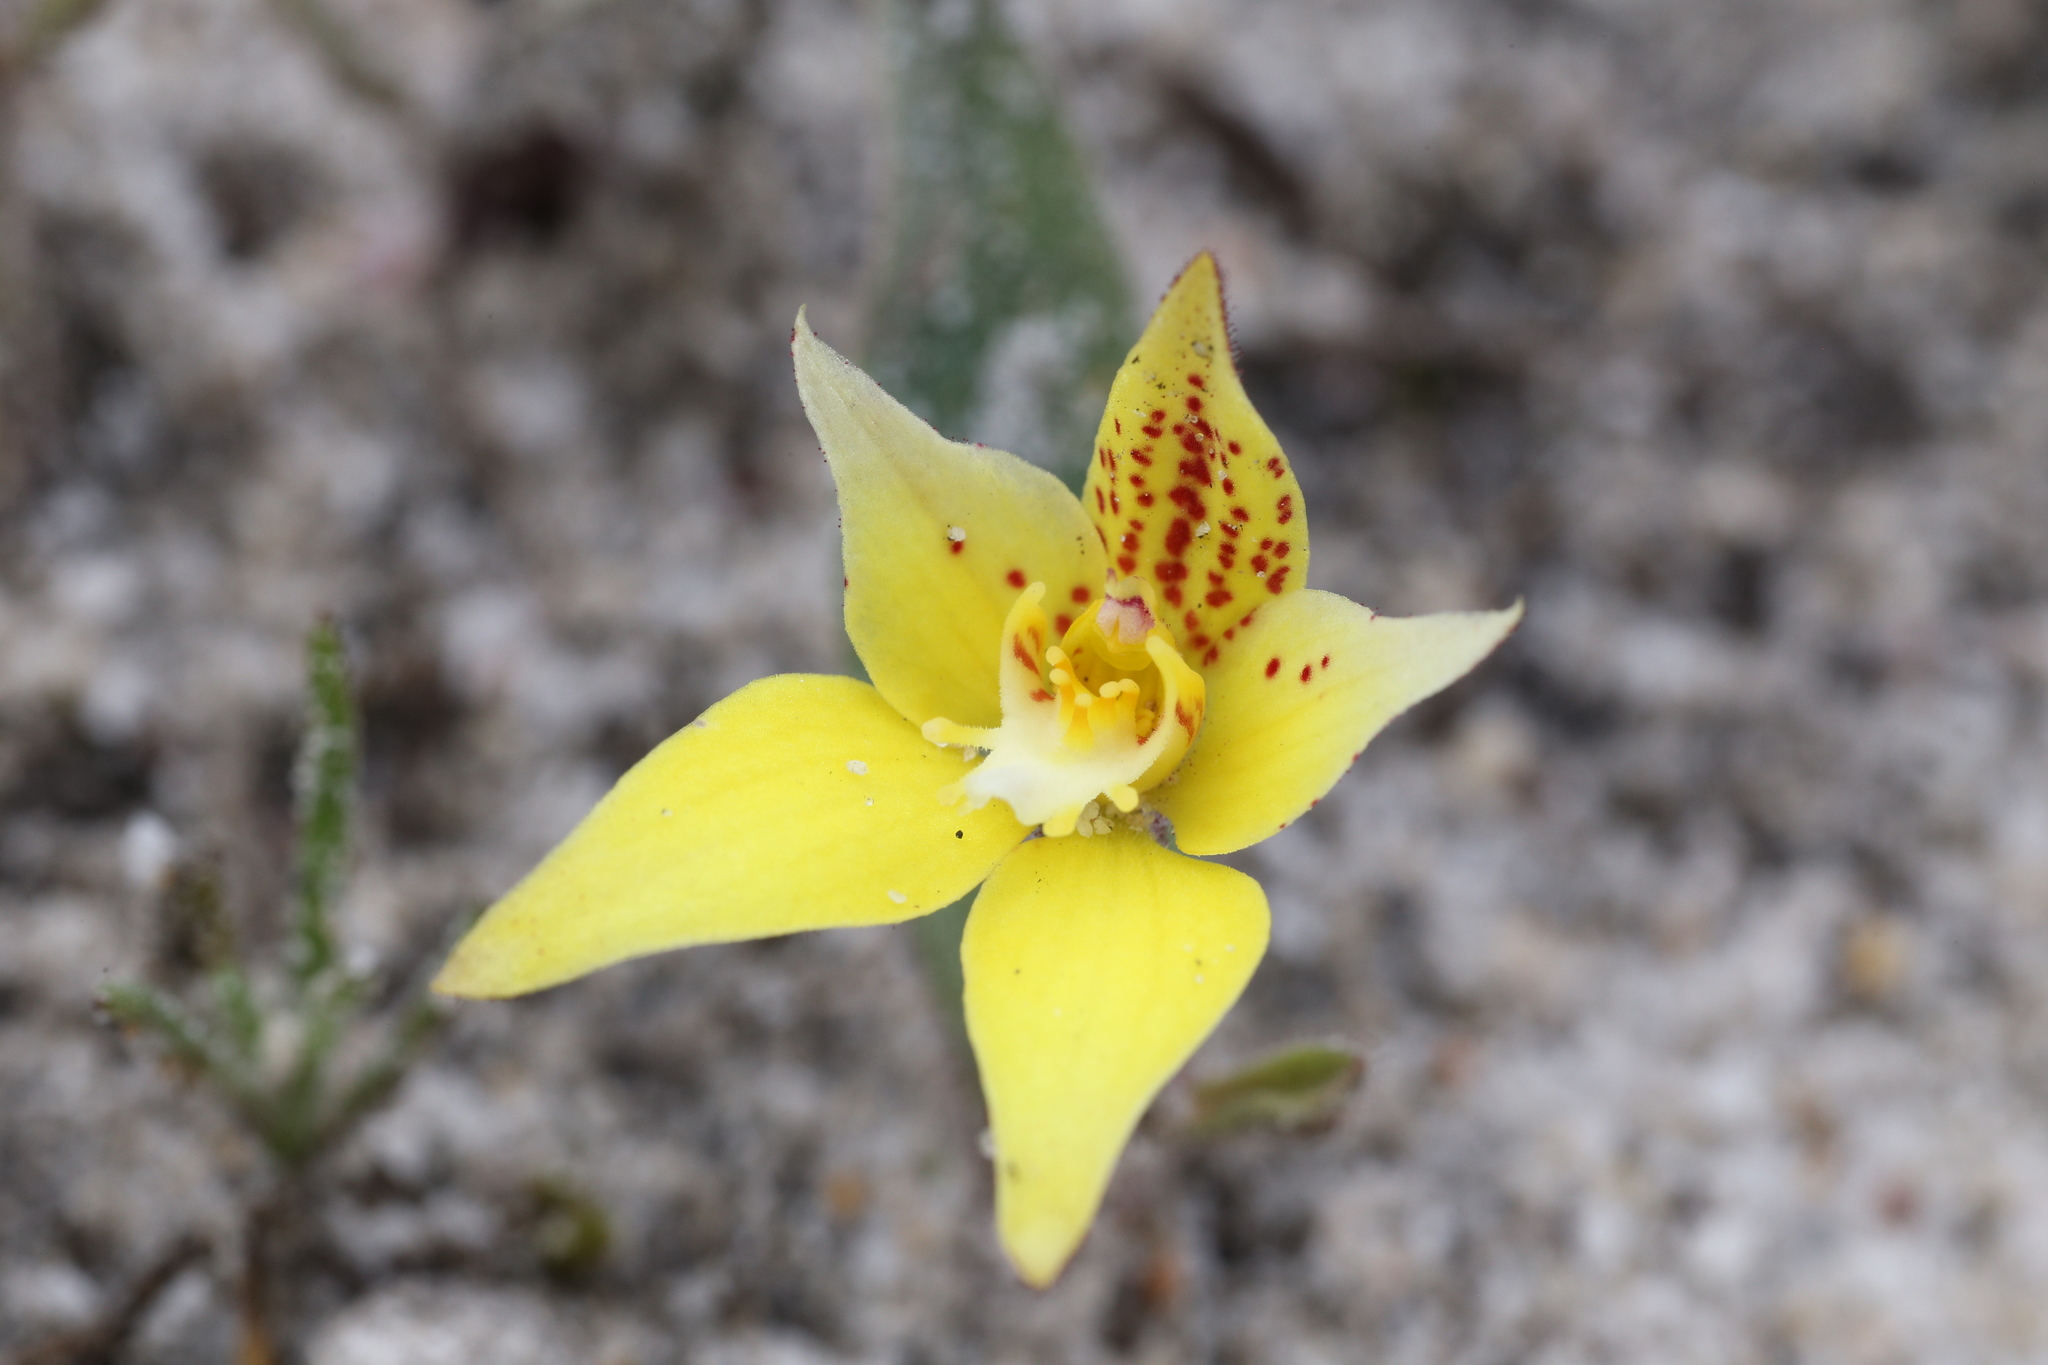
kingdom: Plantae
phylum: Tracheophyta
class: Liliopsida
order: Asparagales
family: Orchidaceae
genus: Caladenia
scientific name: Caladenia flava
